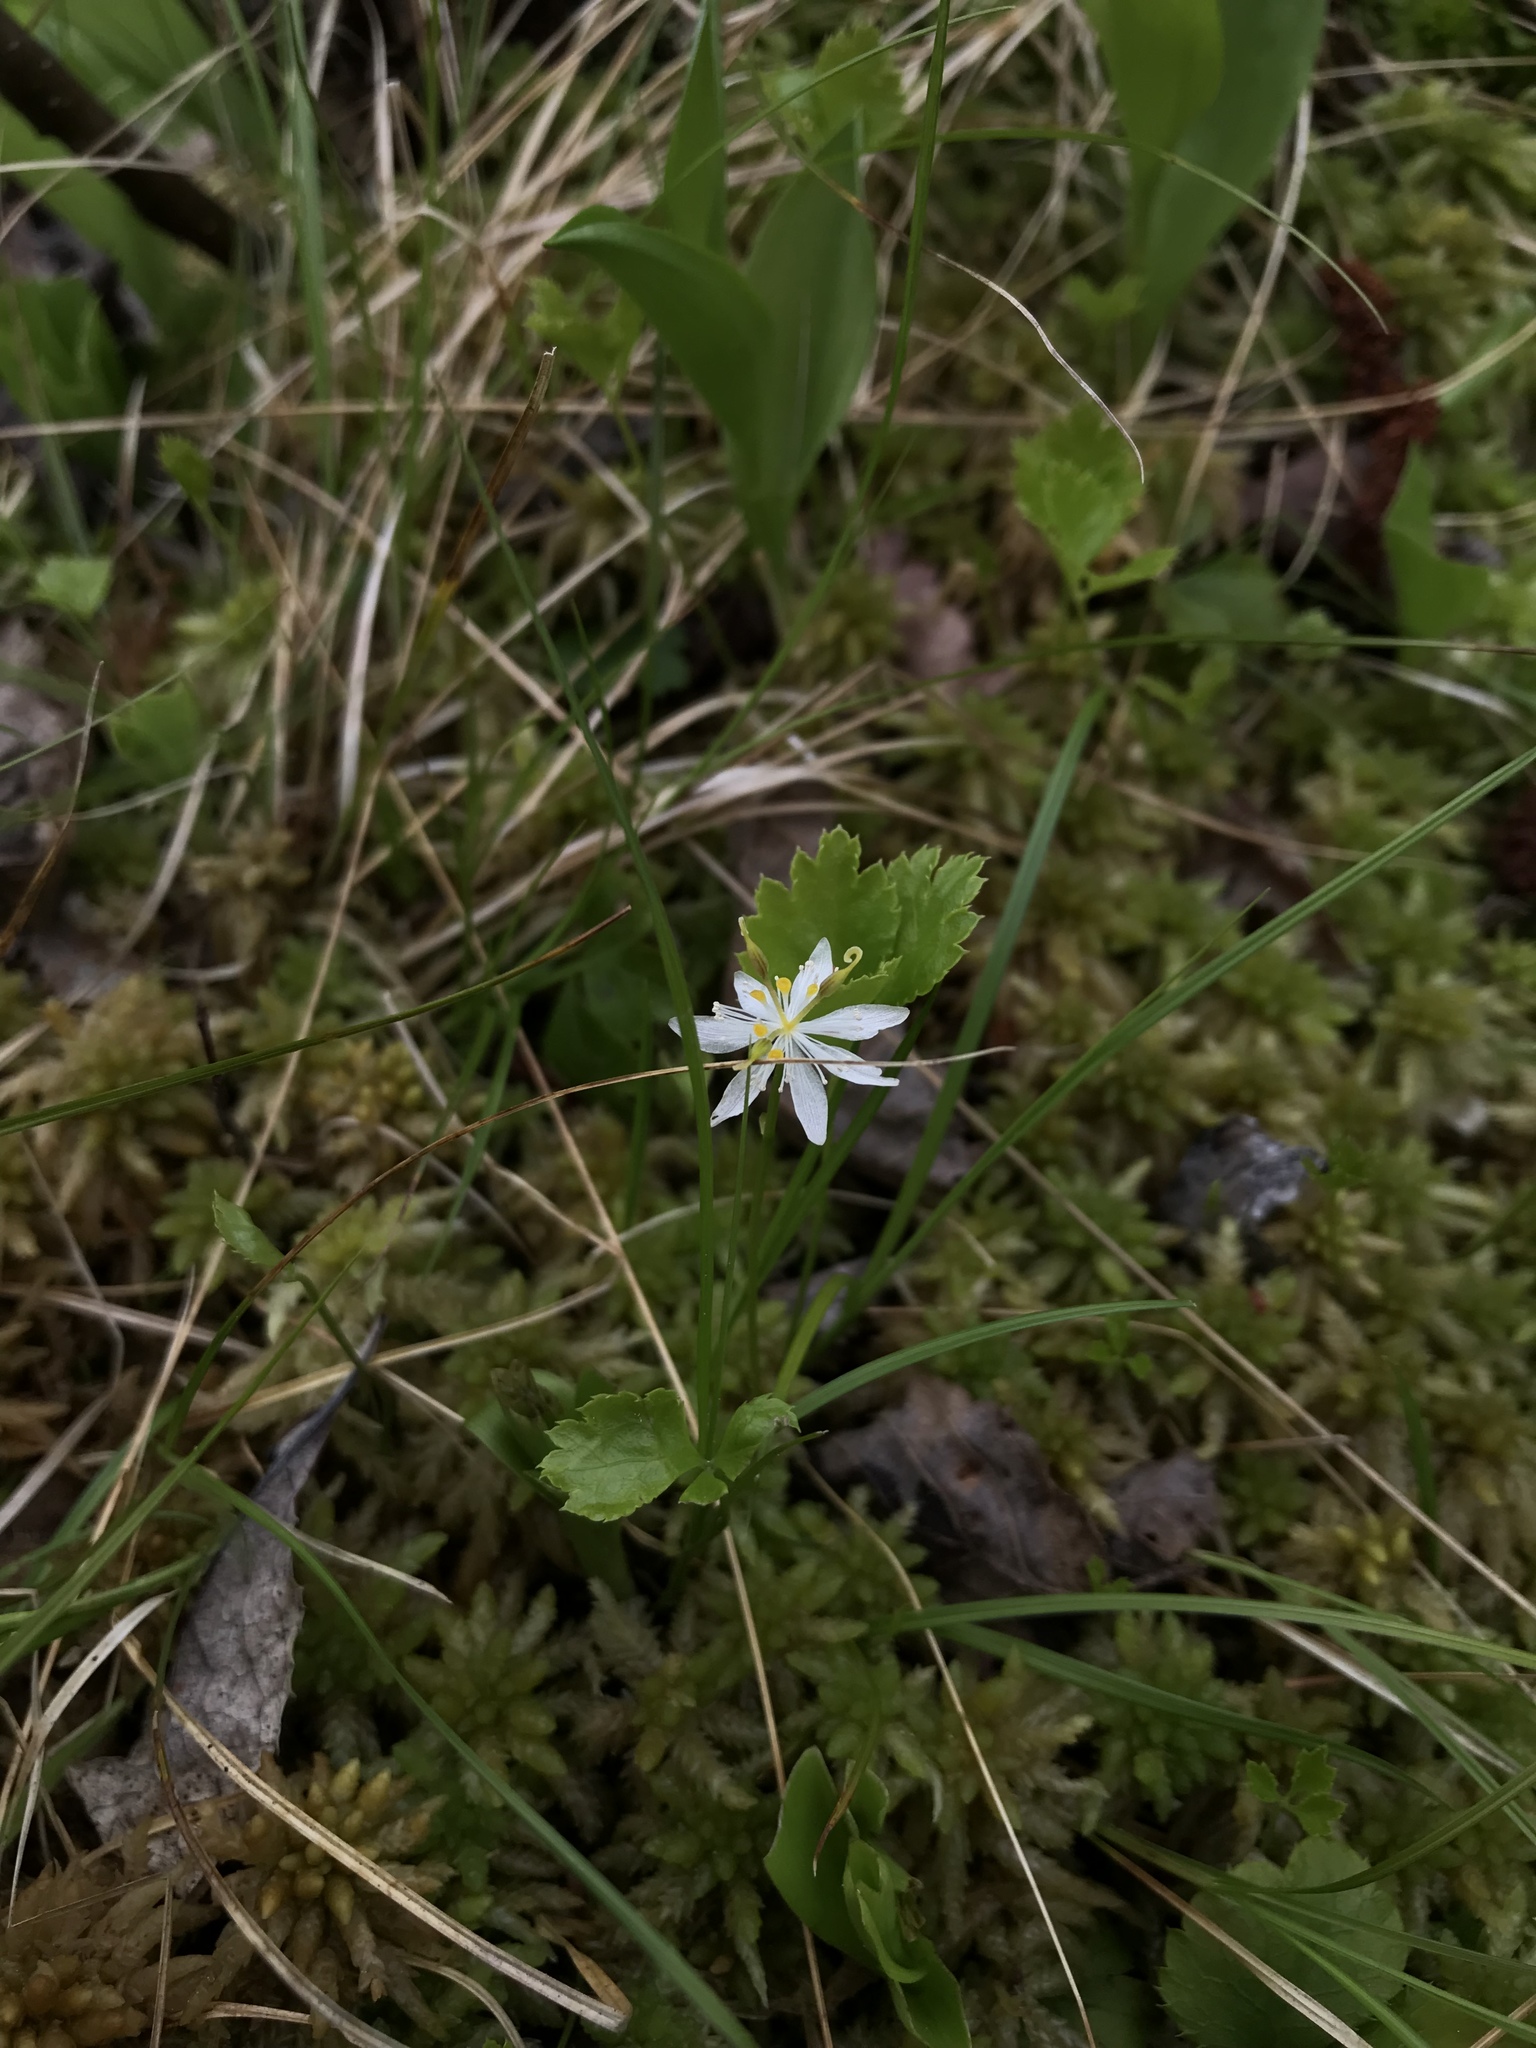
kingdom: Plantae
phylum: Tracheophyta
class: Magnoliopsida
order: Ranunculales
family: Ranunculaceae
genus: Coptis
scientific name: Coptis trifolia
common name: Canker-root
